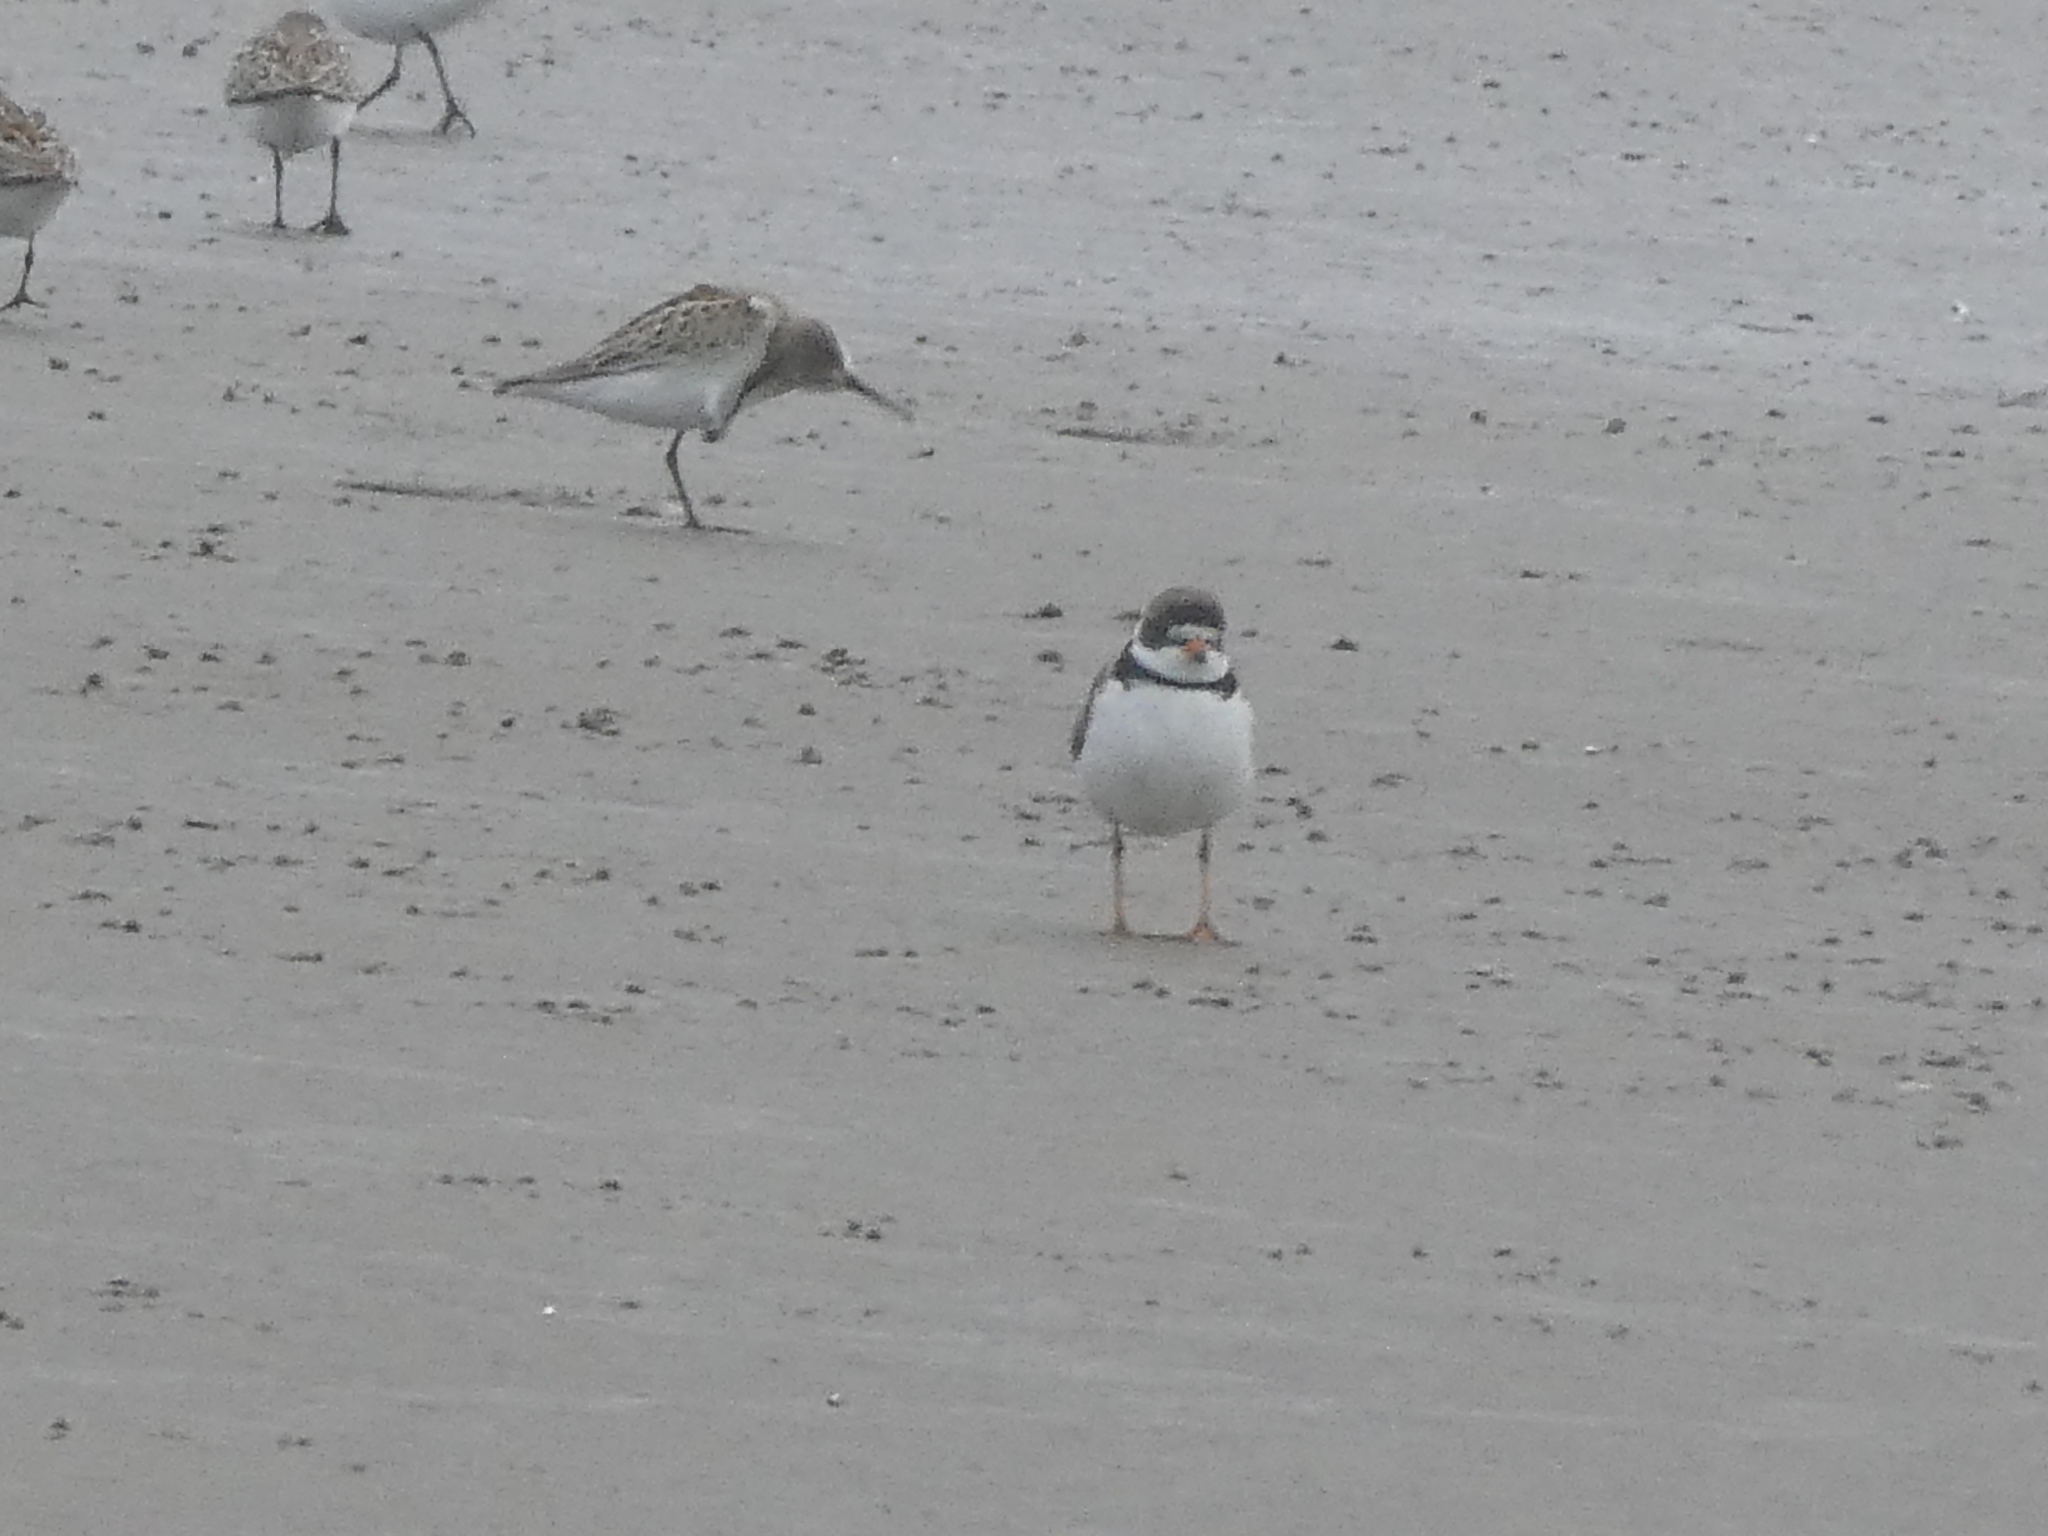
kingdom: Animalia
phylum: Chordata
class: Aves
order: Charadriiformes
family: Charadriidae
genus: Charadrius
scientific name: Charadrius semipalmatus
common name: Semipalmated plover
